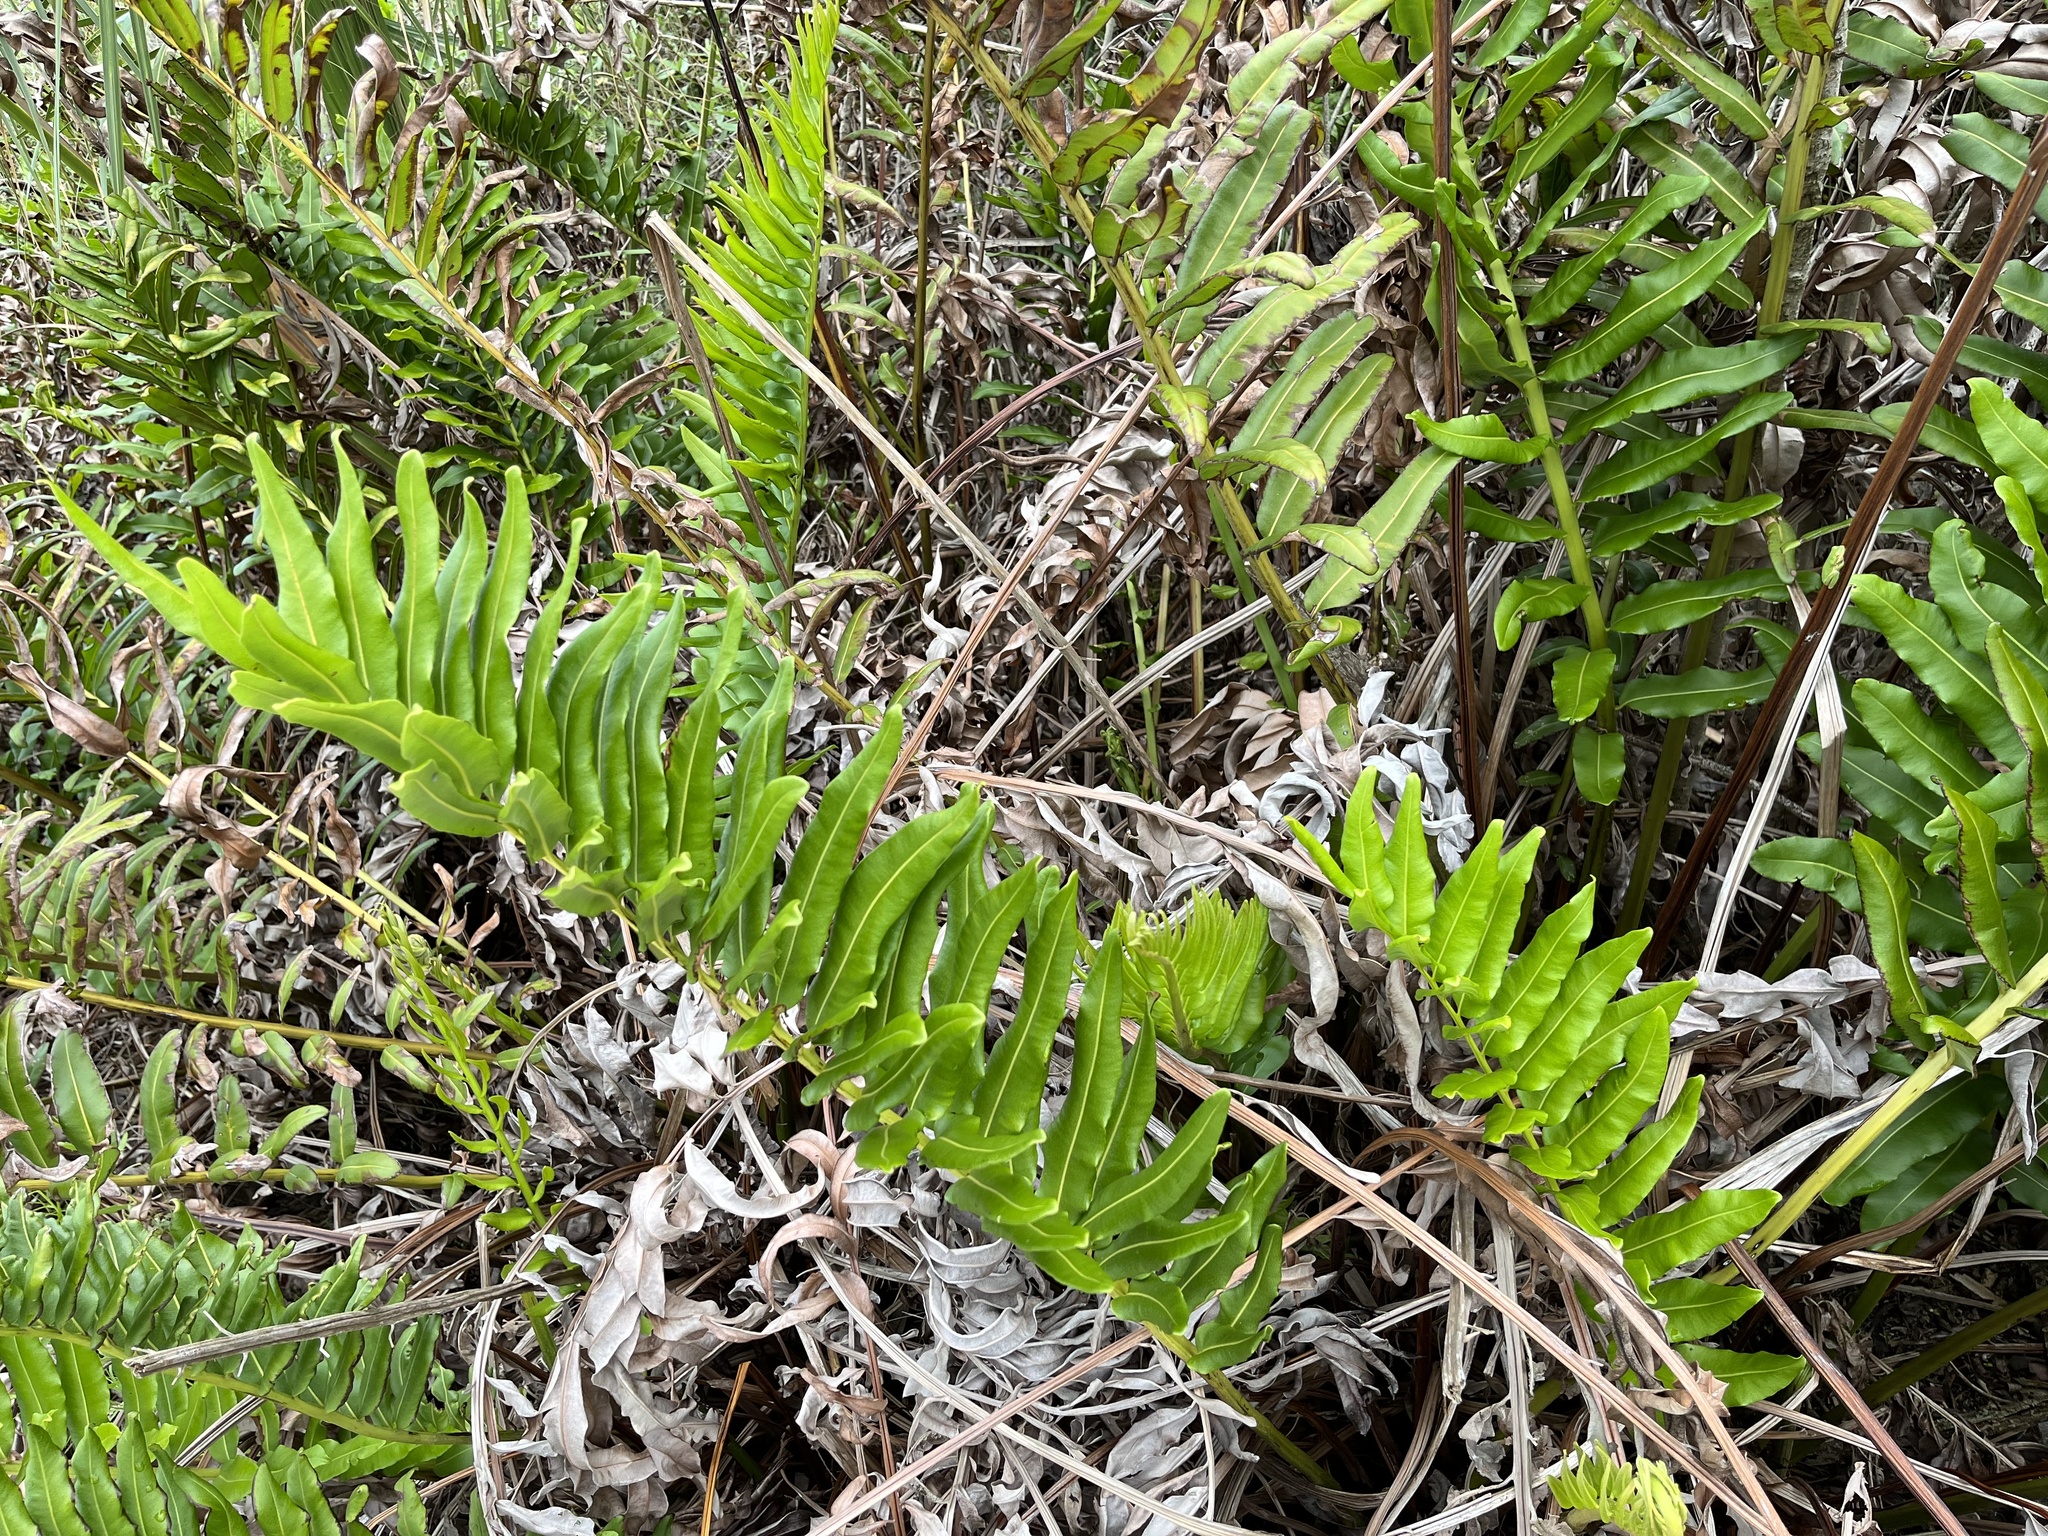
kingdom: Plantae
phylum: Tracheophyta
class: Polypodiopsida
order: Polypodiales
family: Pteridaceae
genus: Acrostichum
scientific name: Acrostichum danaeifolium
